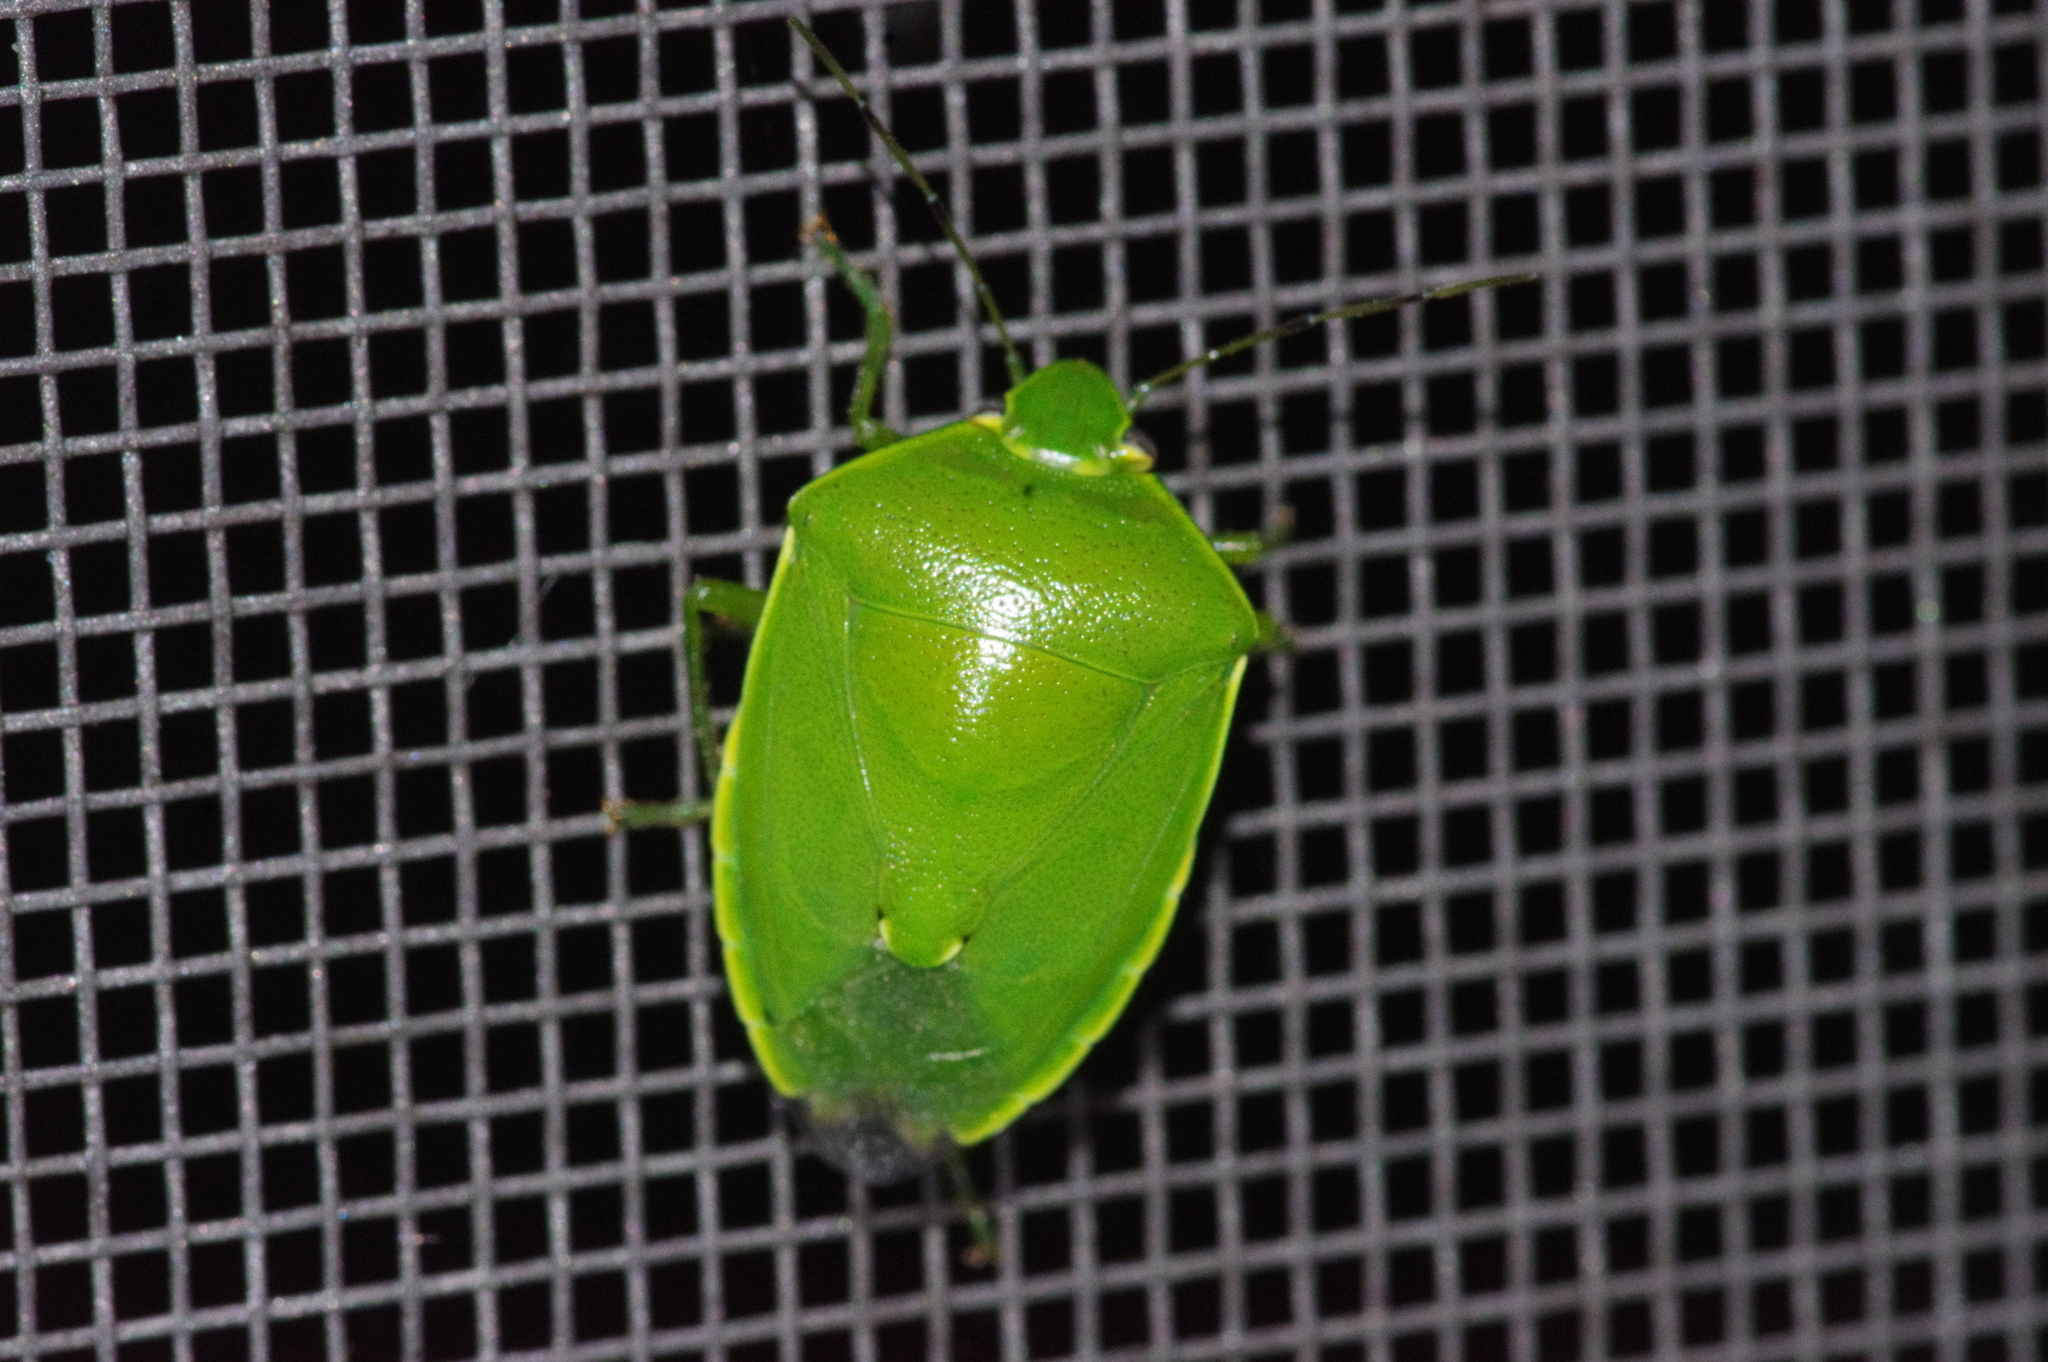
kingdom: Animalia
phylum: Arthropoda
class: Insecta
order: Hemiptera
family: Pentatomidae
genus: Glaucias
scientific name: Glaucias subpunctatus
